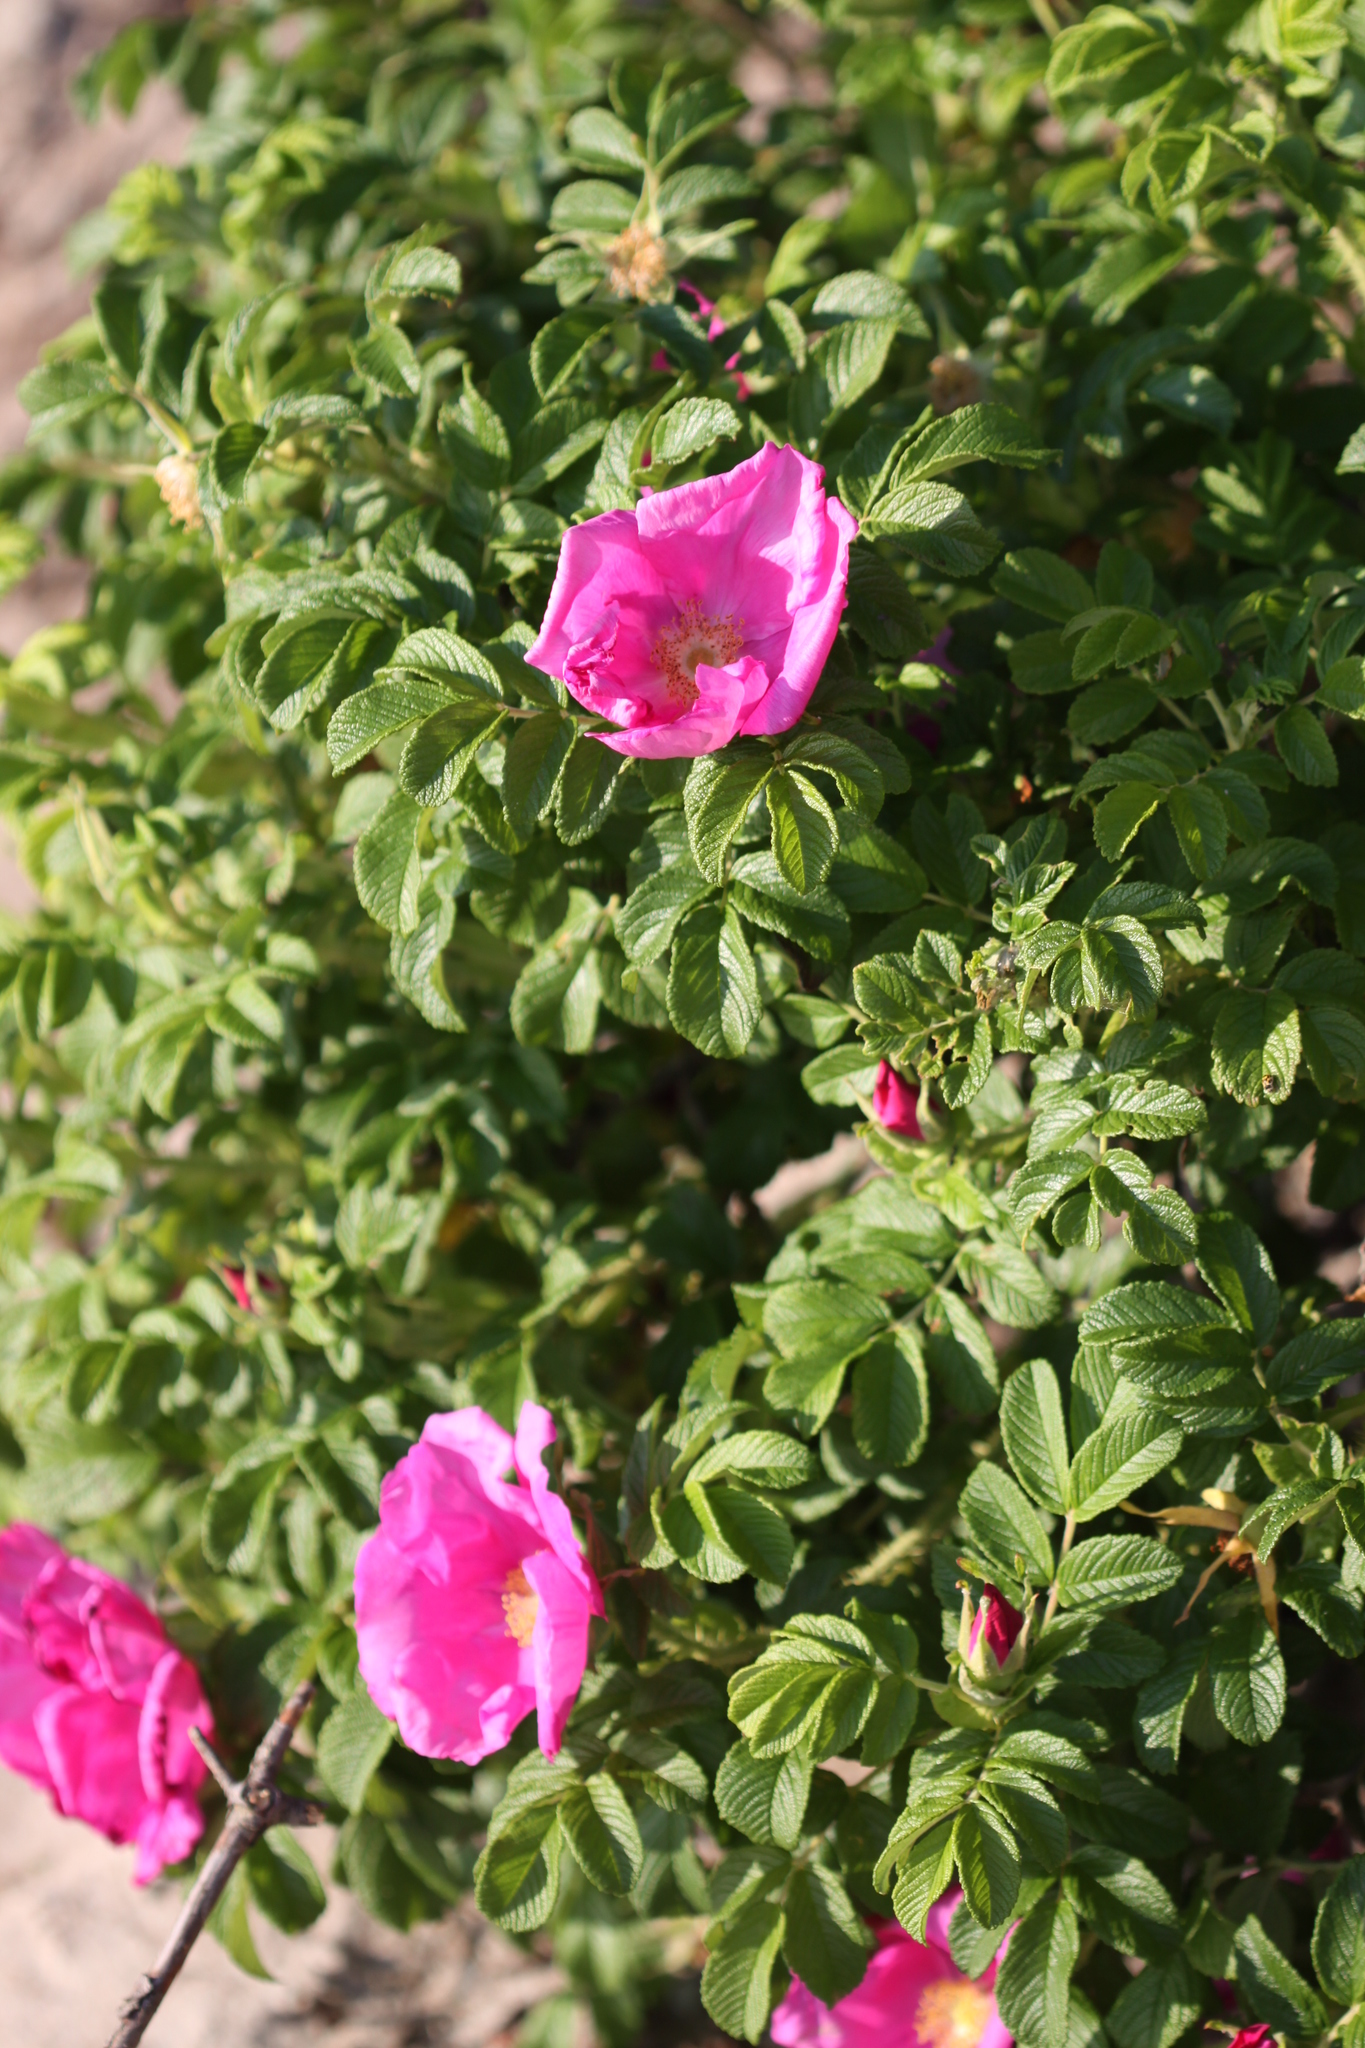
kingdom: Plantae
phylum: Tracheophyta
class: Magnoliopsida
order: Rosales
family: Rosaceae
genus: Rosa
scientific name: Rosa rugosa
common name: Japanese rose
